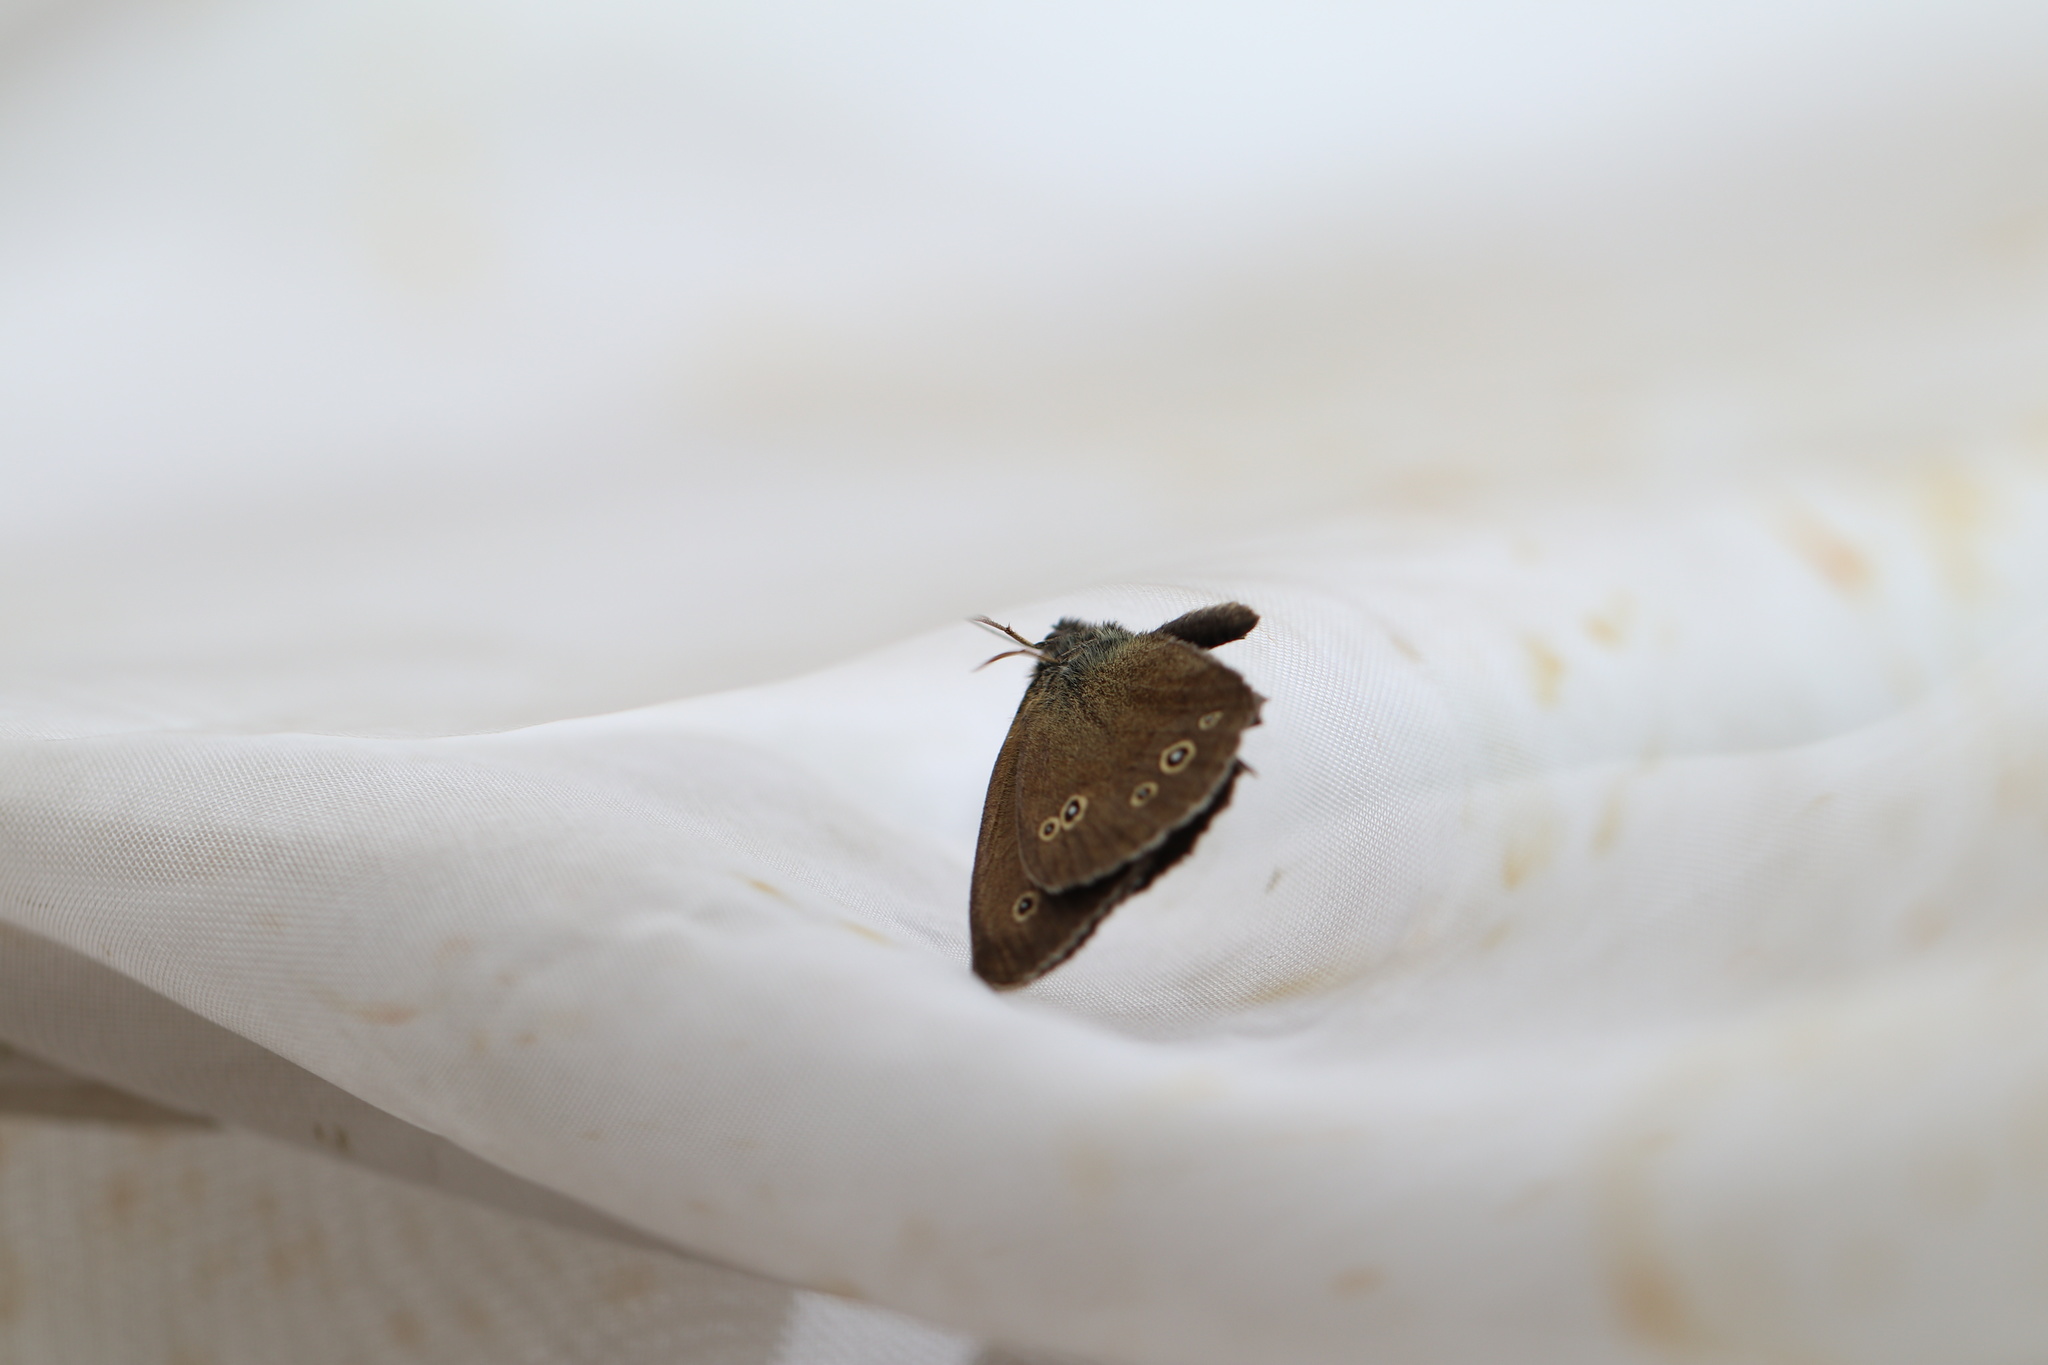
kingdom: Animalia
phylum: Arthropoda
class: Insecta
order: Lepidoptera
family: Nymphalidae
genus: Aphantopus
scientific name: Aphantopus hyperantus
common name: Ringlet
